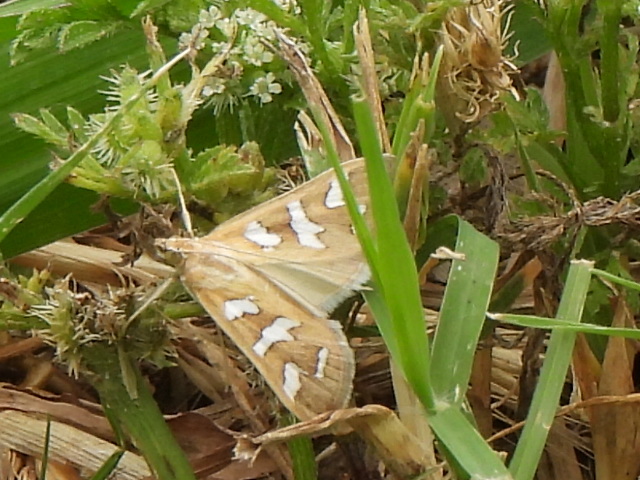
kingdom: Animalia
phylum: Arthropoda
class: Insecta
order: Lepidoptera
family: Crambidae
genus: Diastictis
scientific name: Diastictis fracturalis
